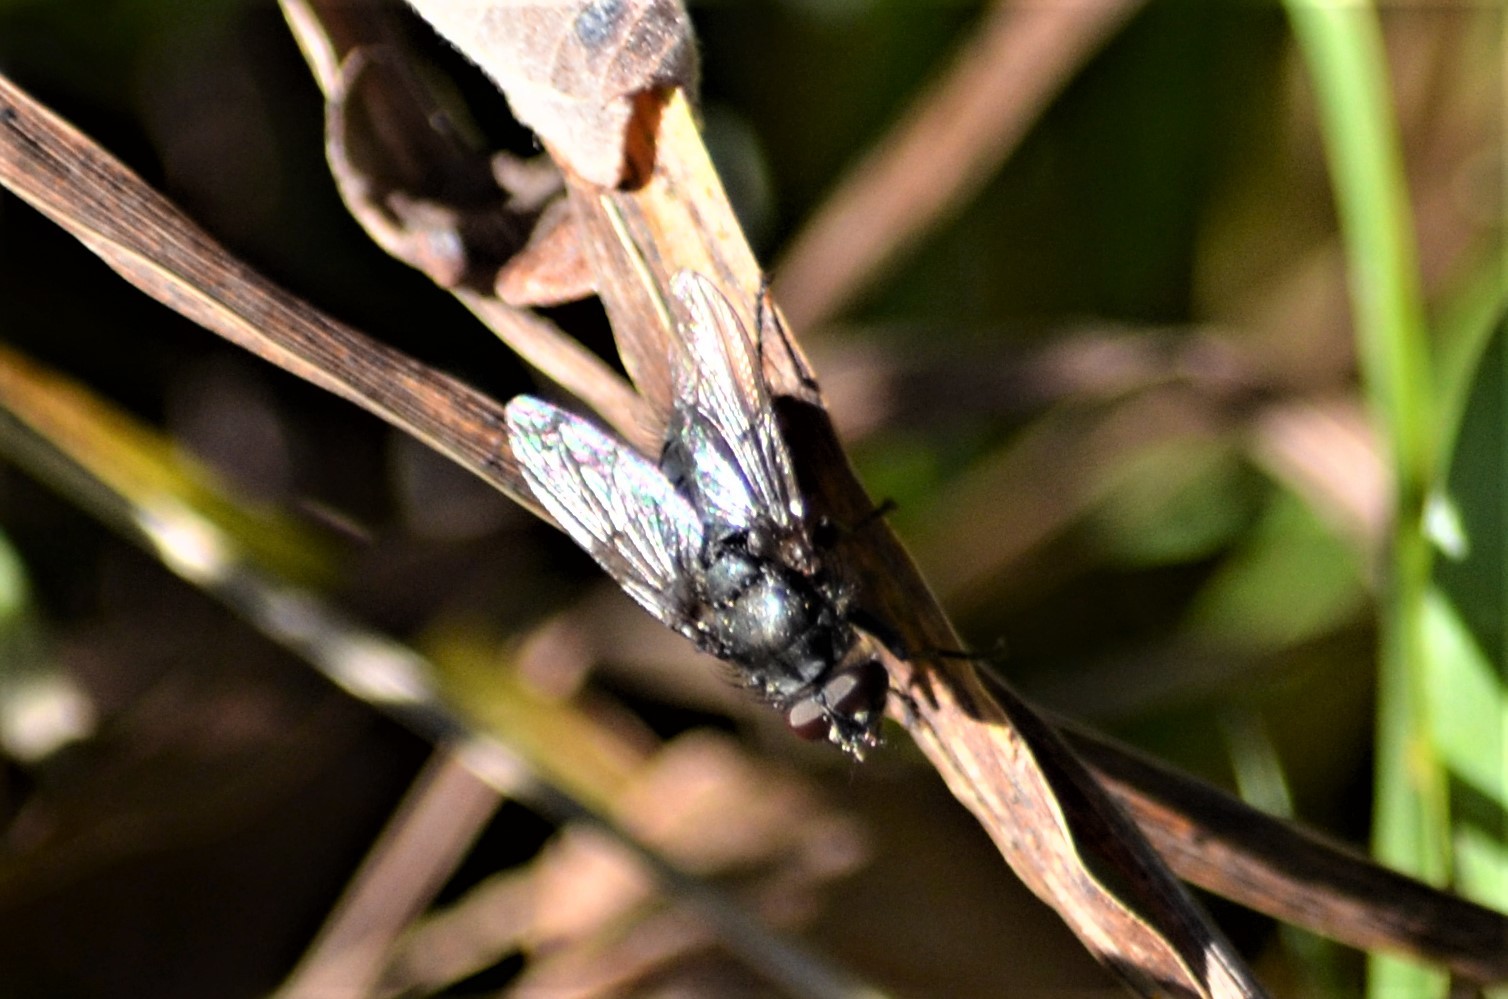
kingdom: Animalia
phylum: Arthropoda
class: Insecta
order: Diptera
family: Polleniidae
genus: Pollenia
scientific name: Pollenia vagabunda
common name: Vagabund cluster fly
